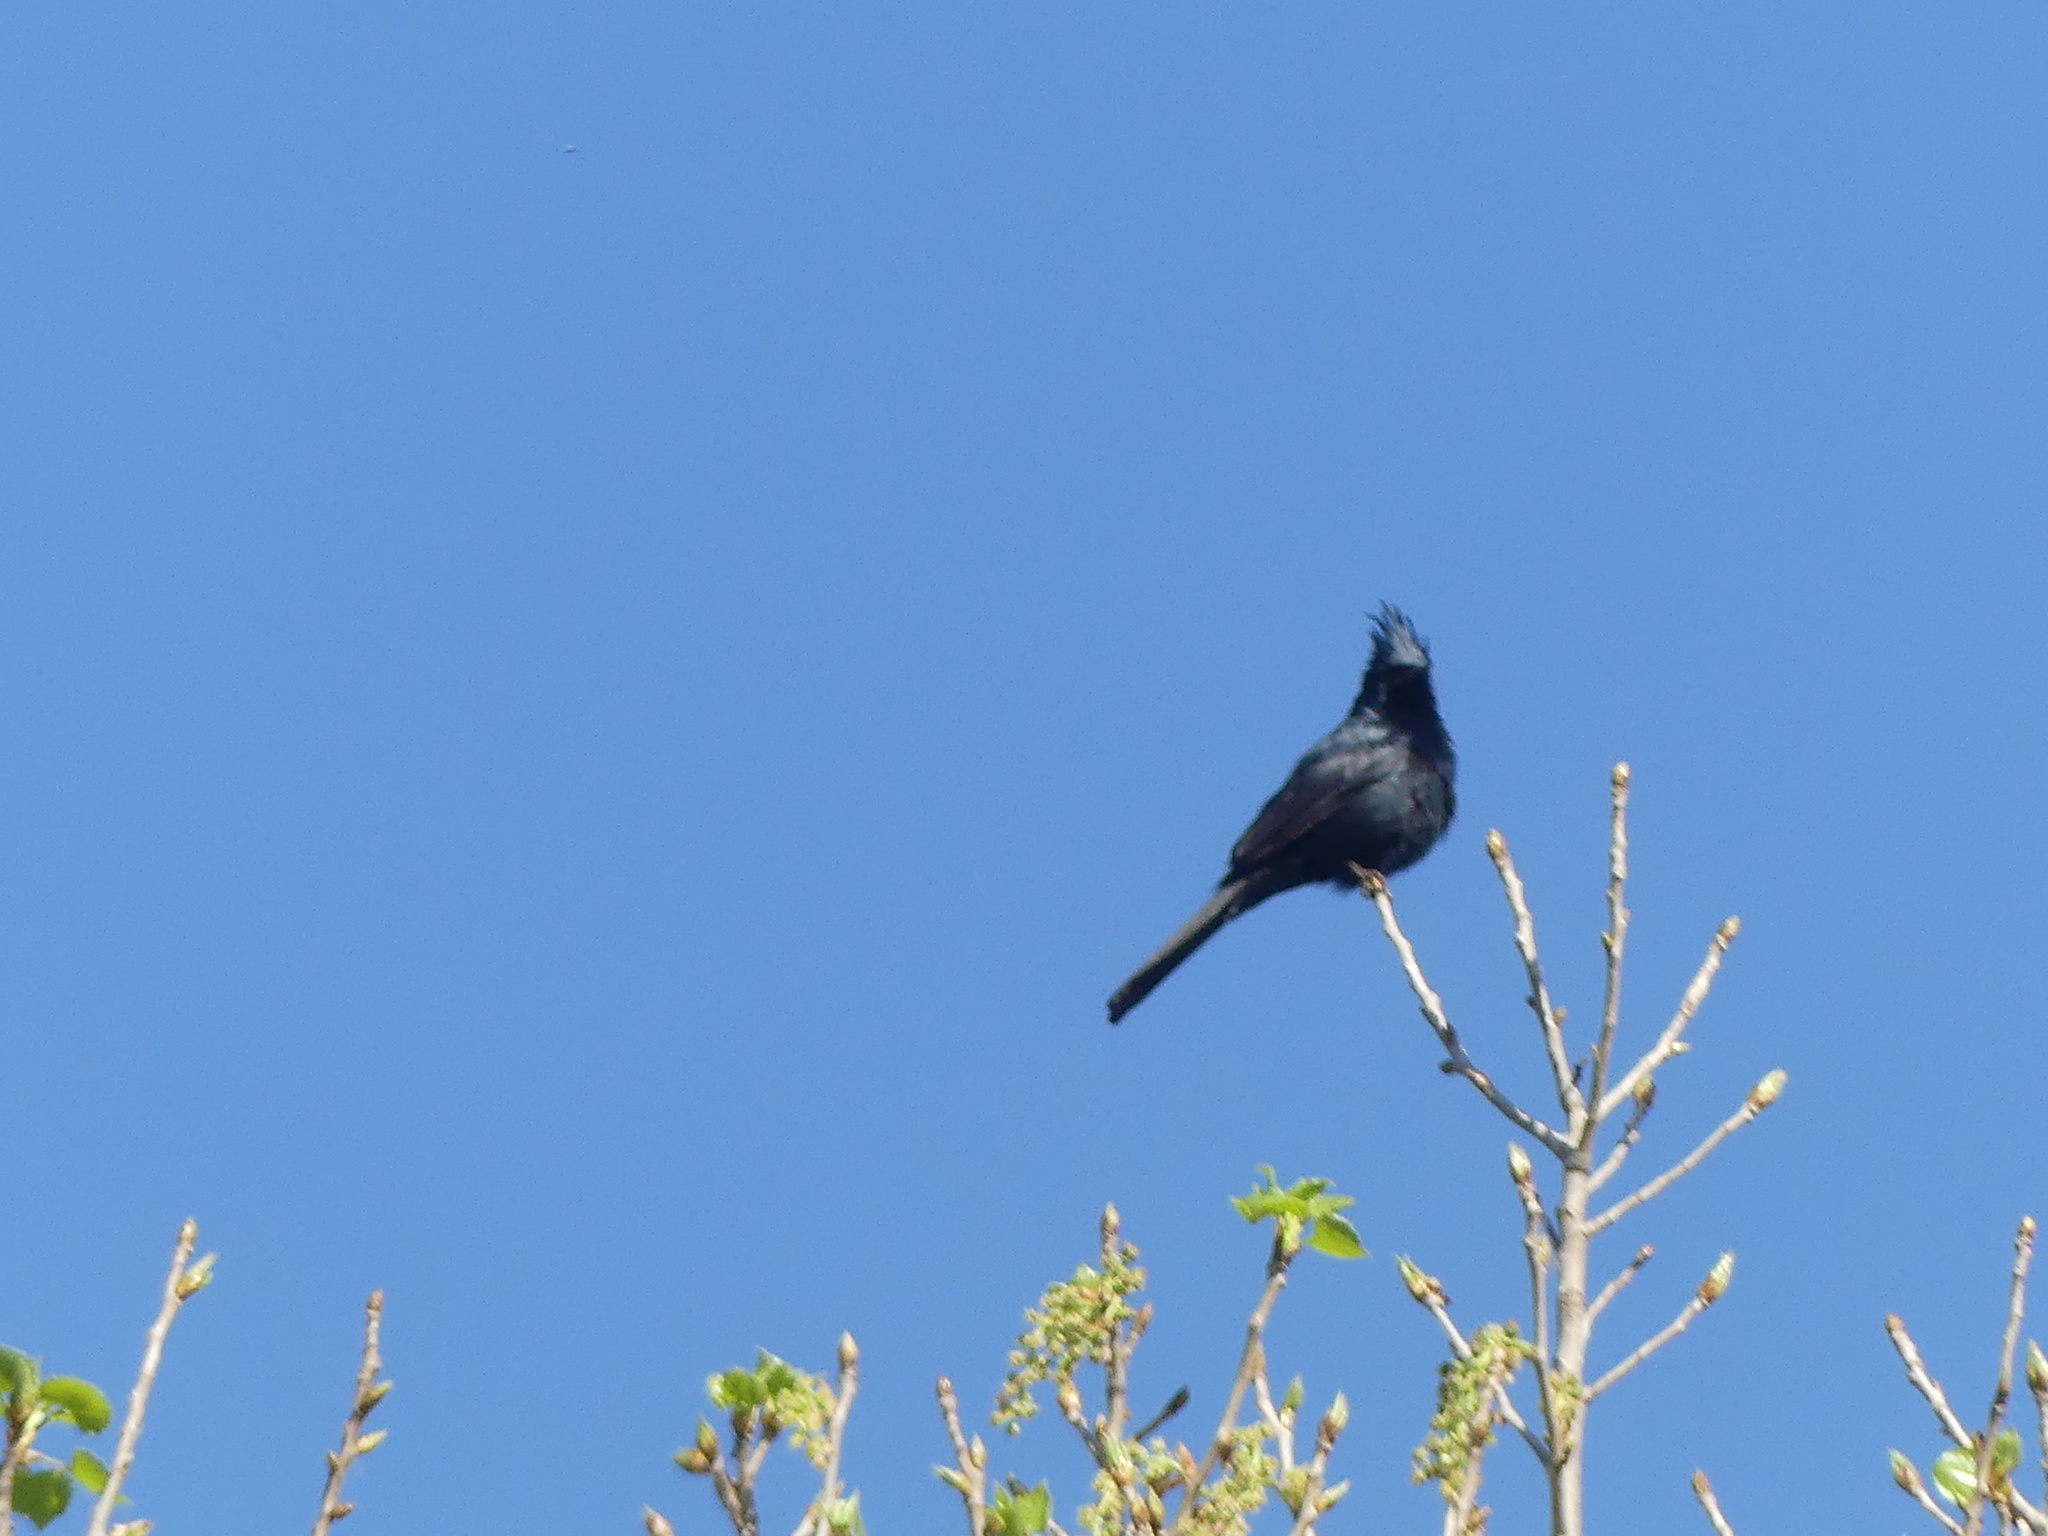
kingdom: Animalia
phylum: Chordata
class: Aves
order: Passeriformes
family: Ptilogonatidae
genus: Phainopepla
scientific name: Phainopepla nitens
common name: Phainopepla
